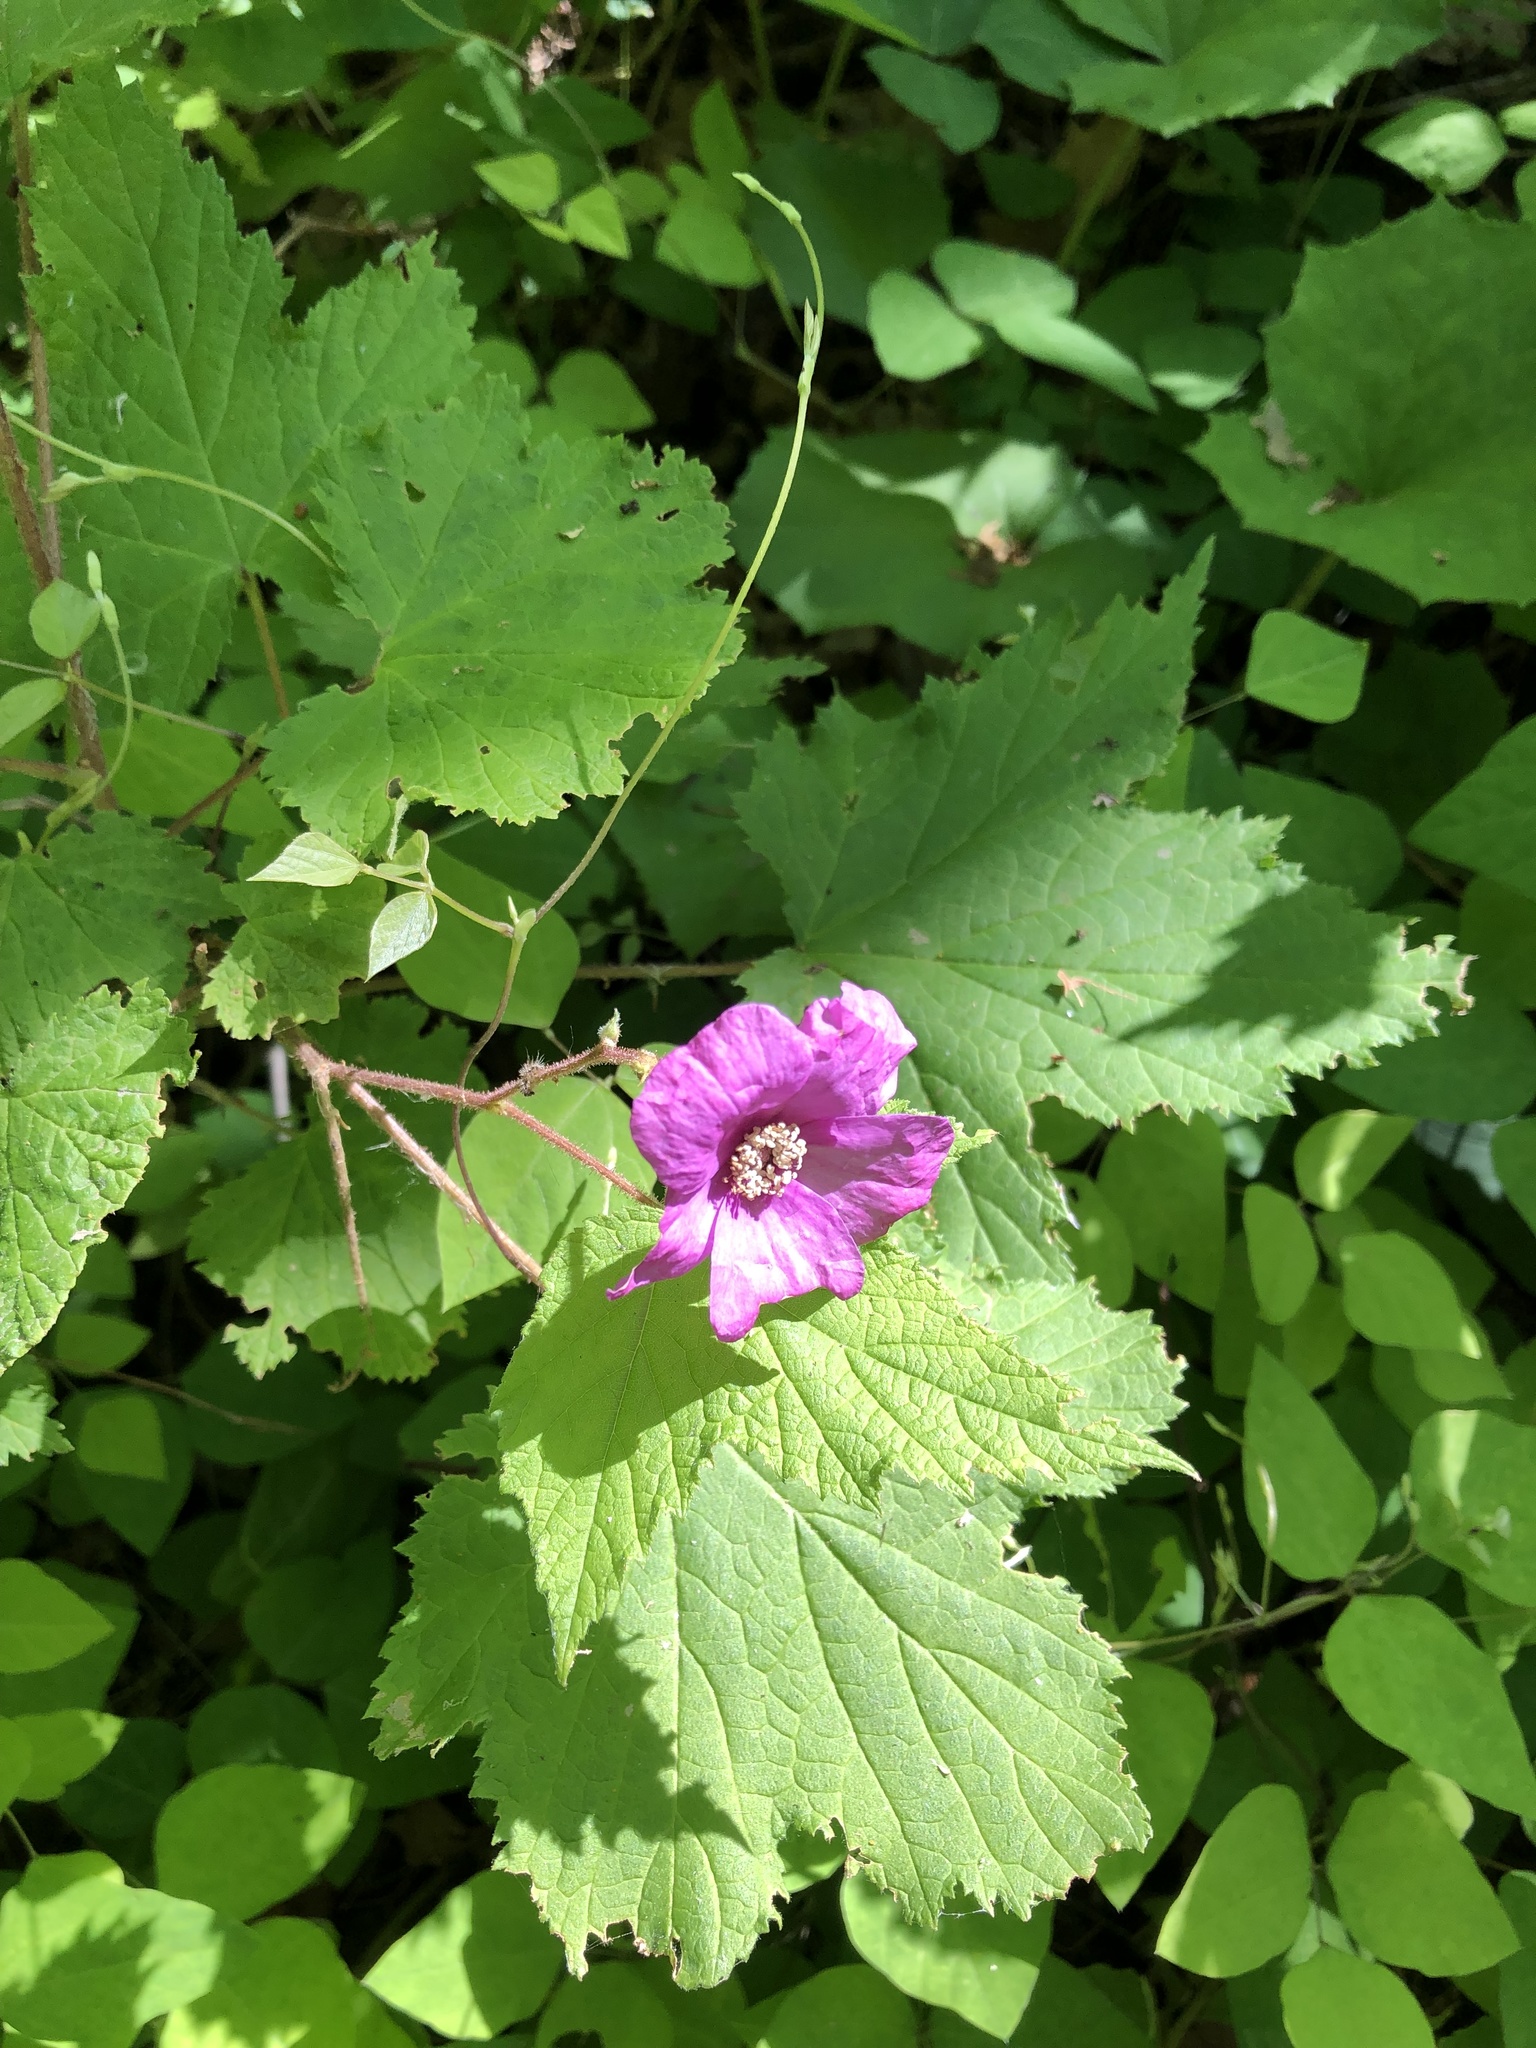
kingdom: Plantae
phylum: Tracheophyta
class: Magnoliopsida
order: Rosales
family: Rosaceae
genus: Rubus
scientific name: Rubus odoratus
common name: Purple-flowered raspberry
